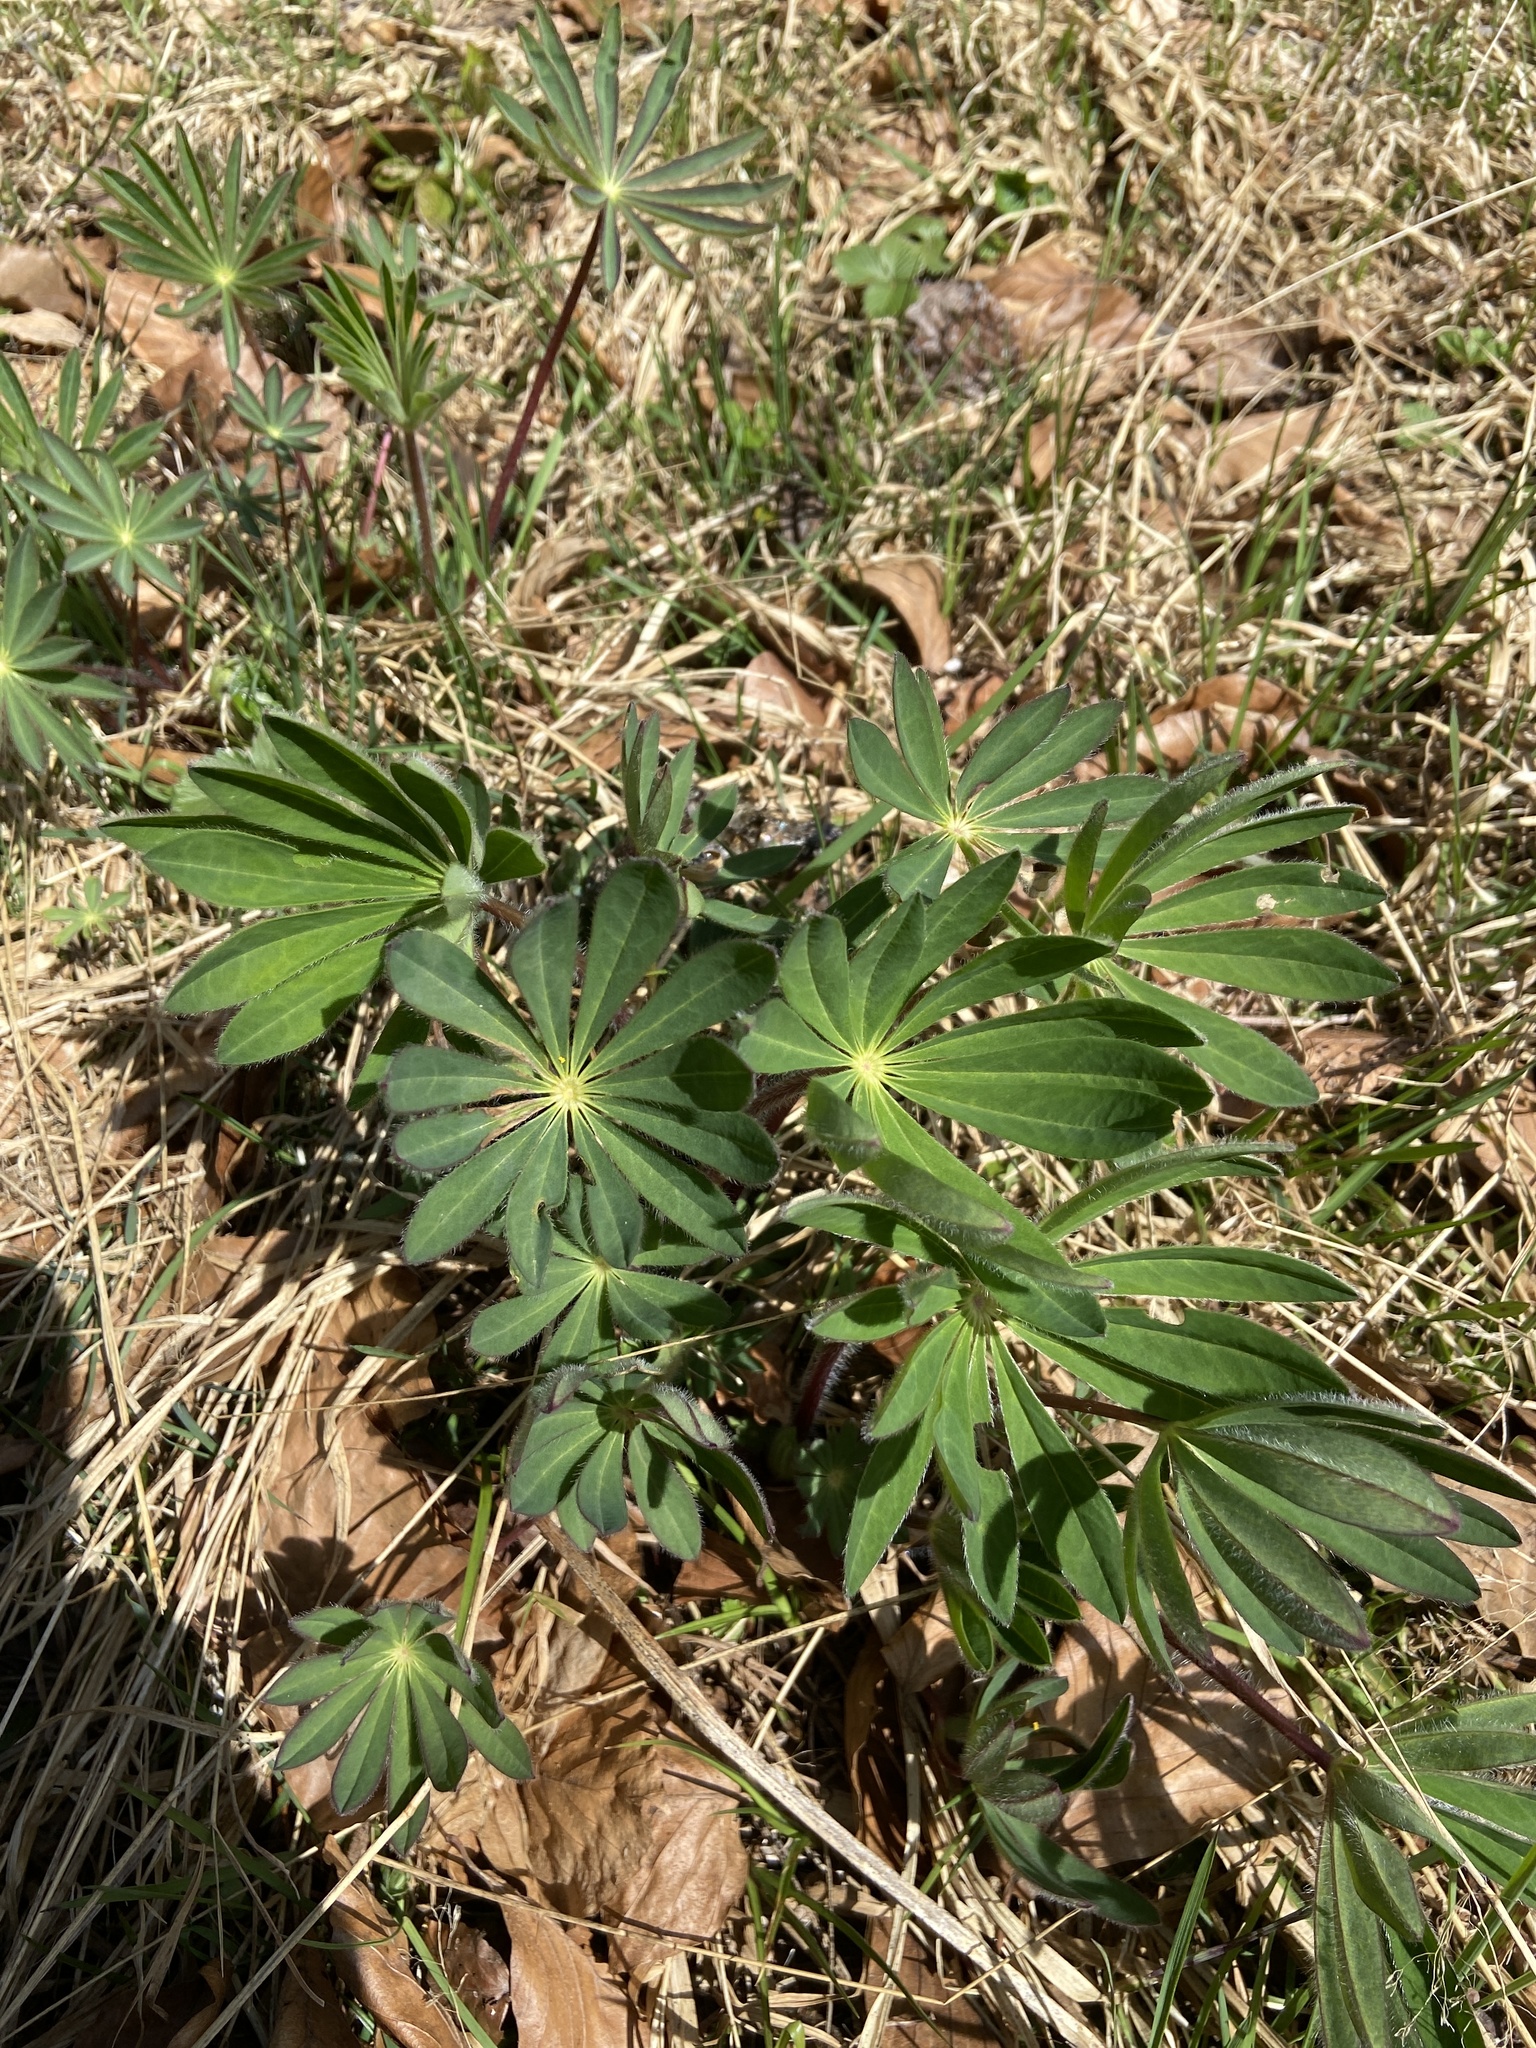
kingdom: Plantae
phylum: Tracheophyta
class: Magnoliopsida
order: Fabales
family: Fabaceae
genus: Lupinus
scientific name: Lupinus polyphyllus
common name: Garden lupin
